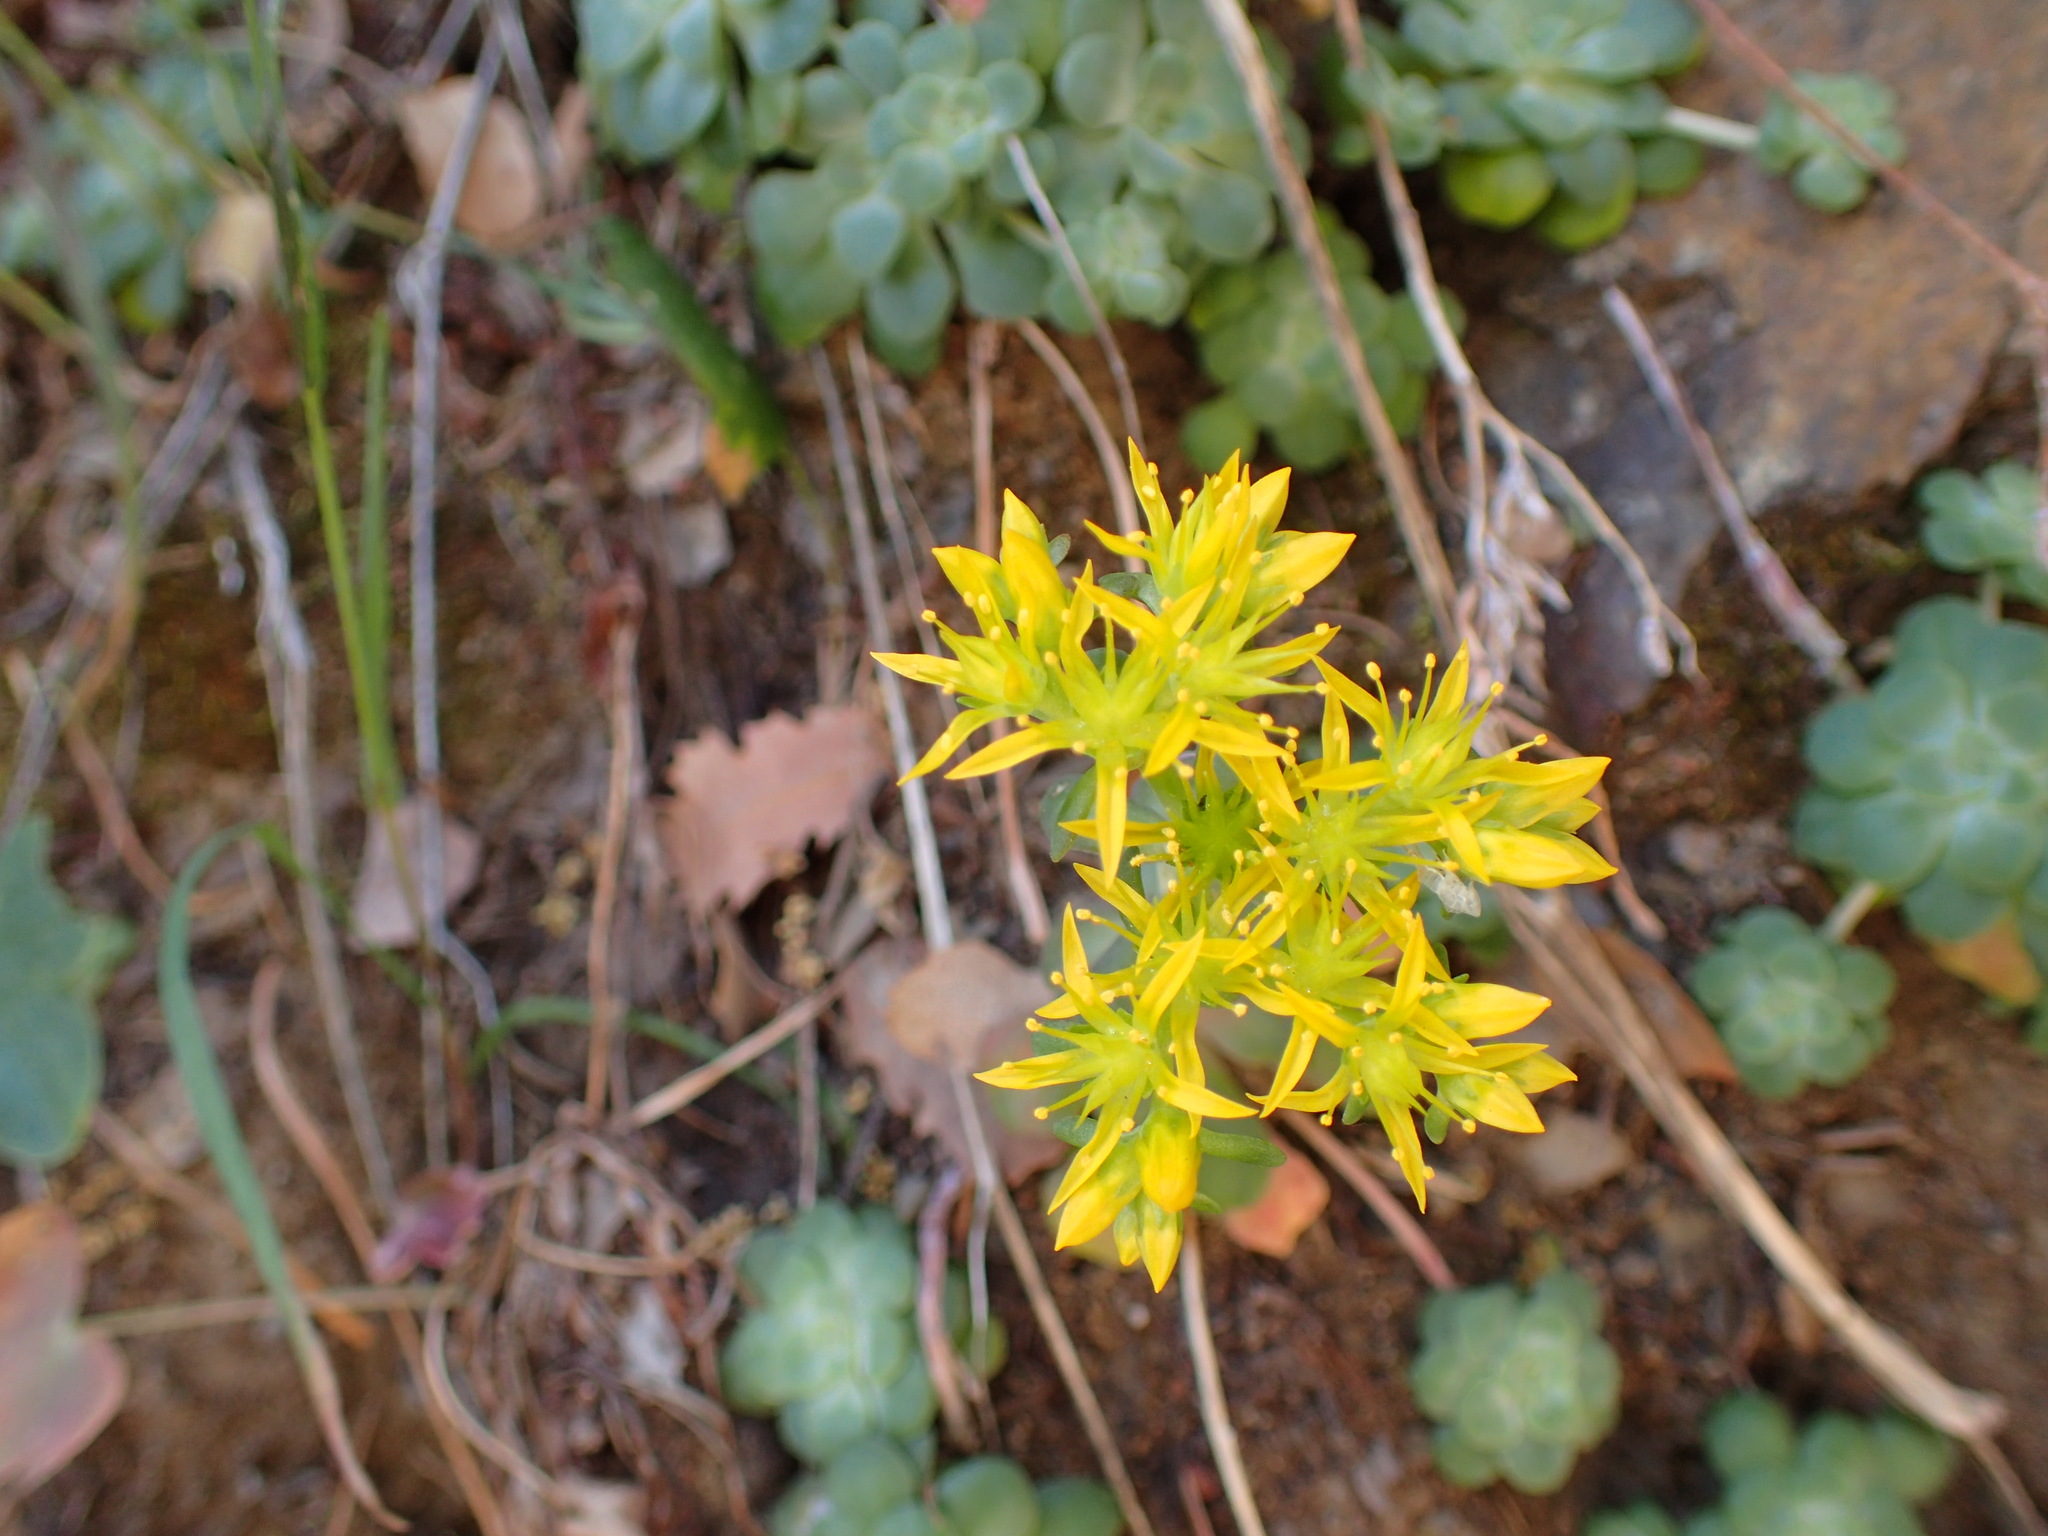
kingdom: Plantae
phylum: Tracheophyta
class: Magnoliopsida
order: Saxifragales
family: Crassulaceae
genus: Sedum
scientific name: Sedum spathulifolium
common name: Colorado stonecrop
